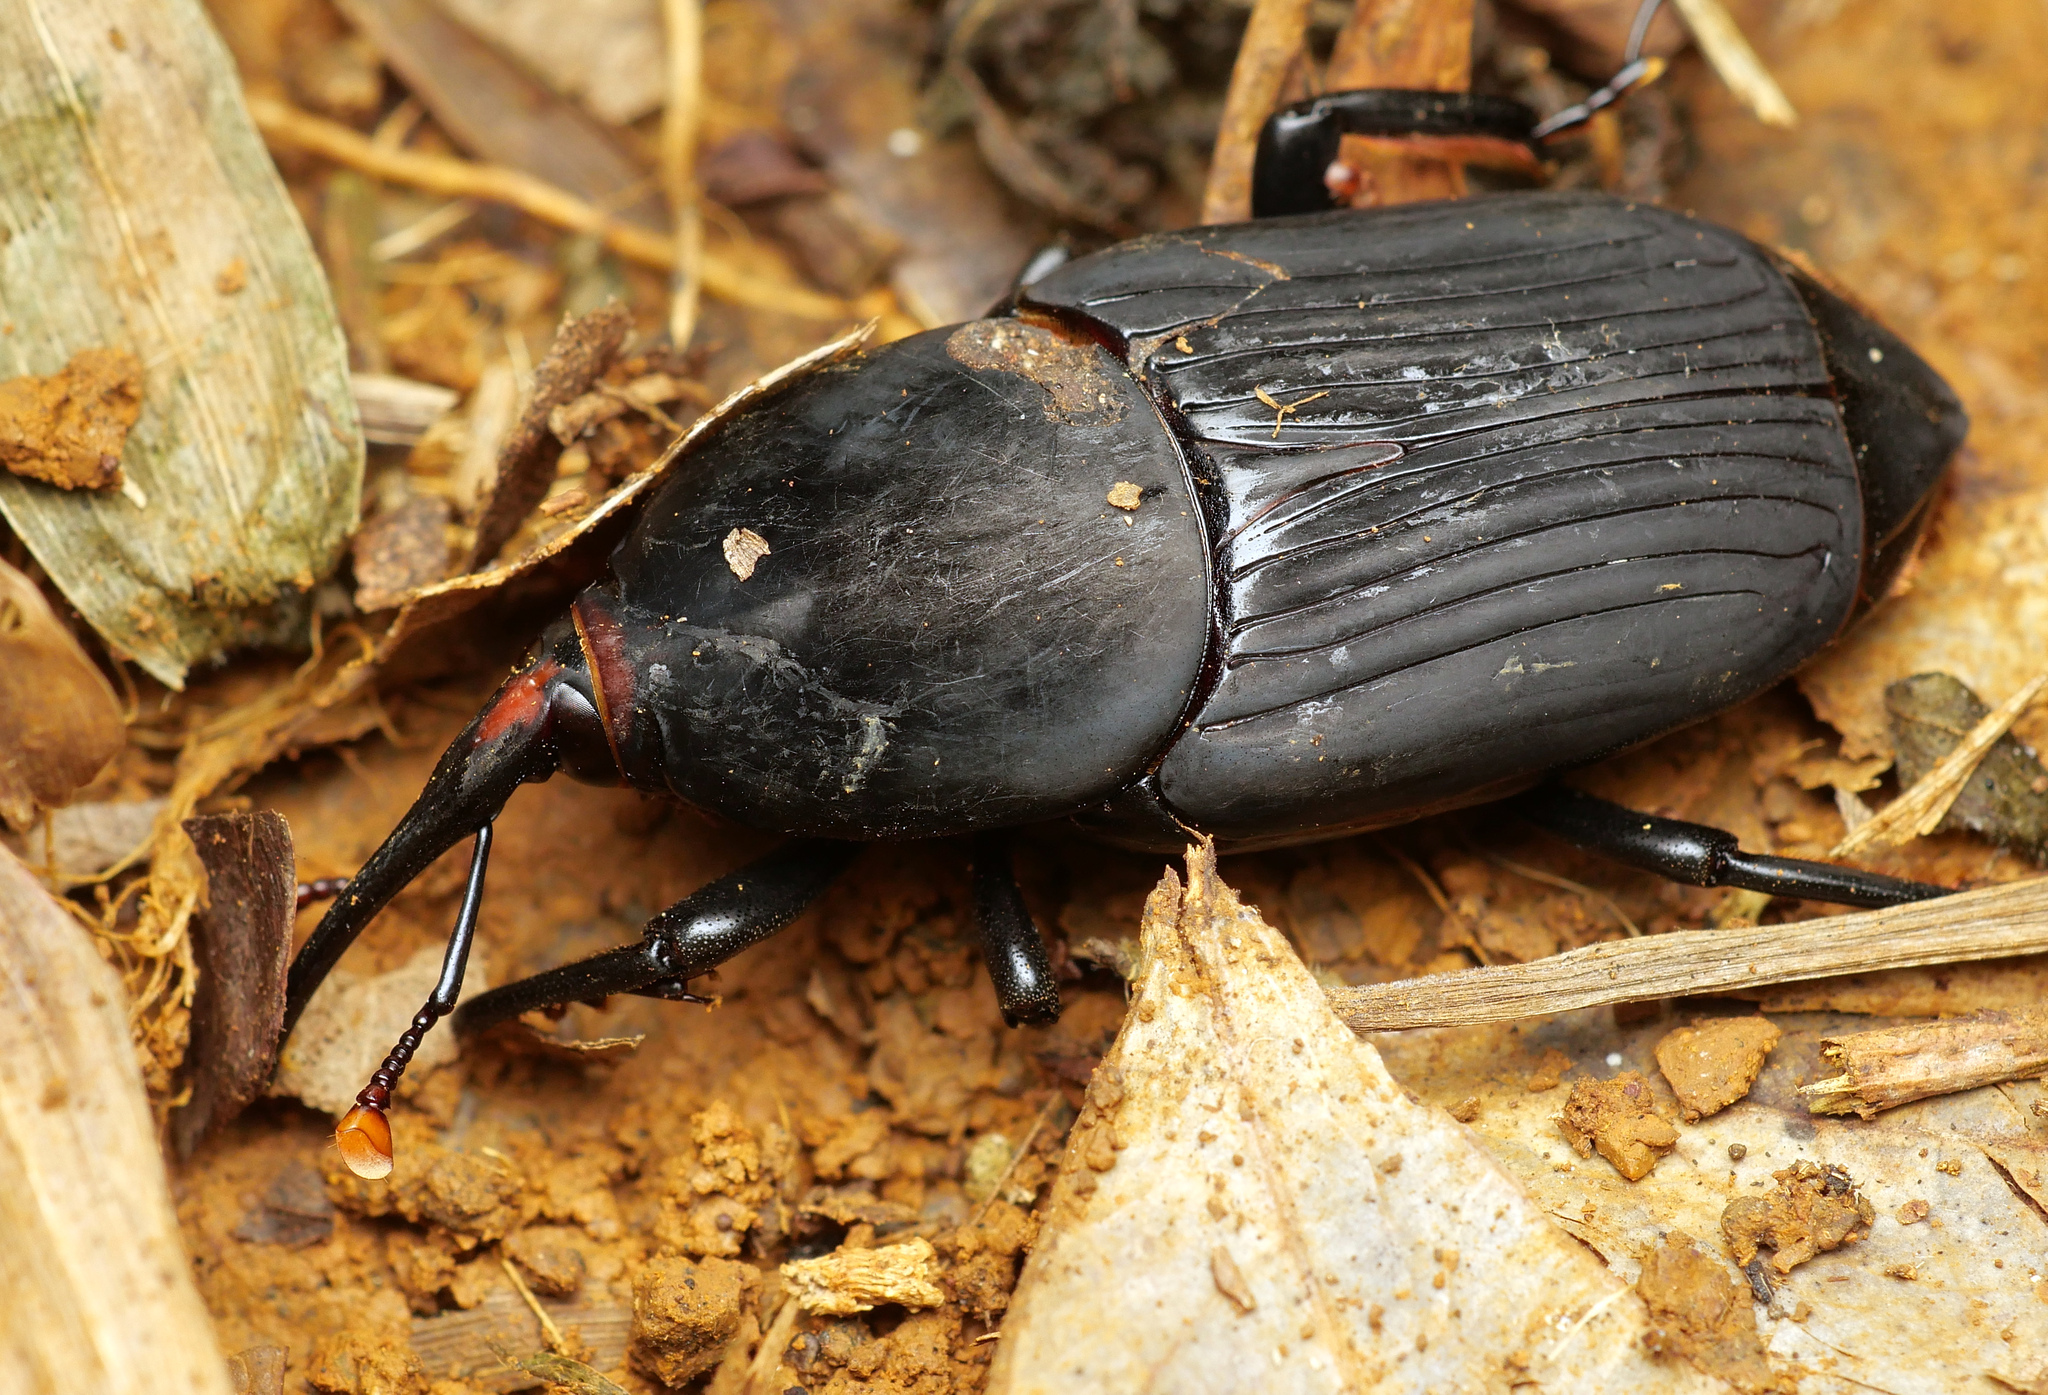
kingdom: Animalia
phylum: Arthropoda
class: Insecta
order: Coleoptera
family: Dryophthoridae
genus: Rhynchophorus
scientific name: Rhynchophorus bilineatus
